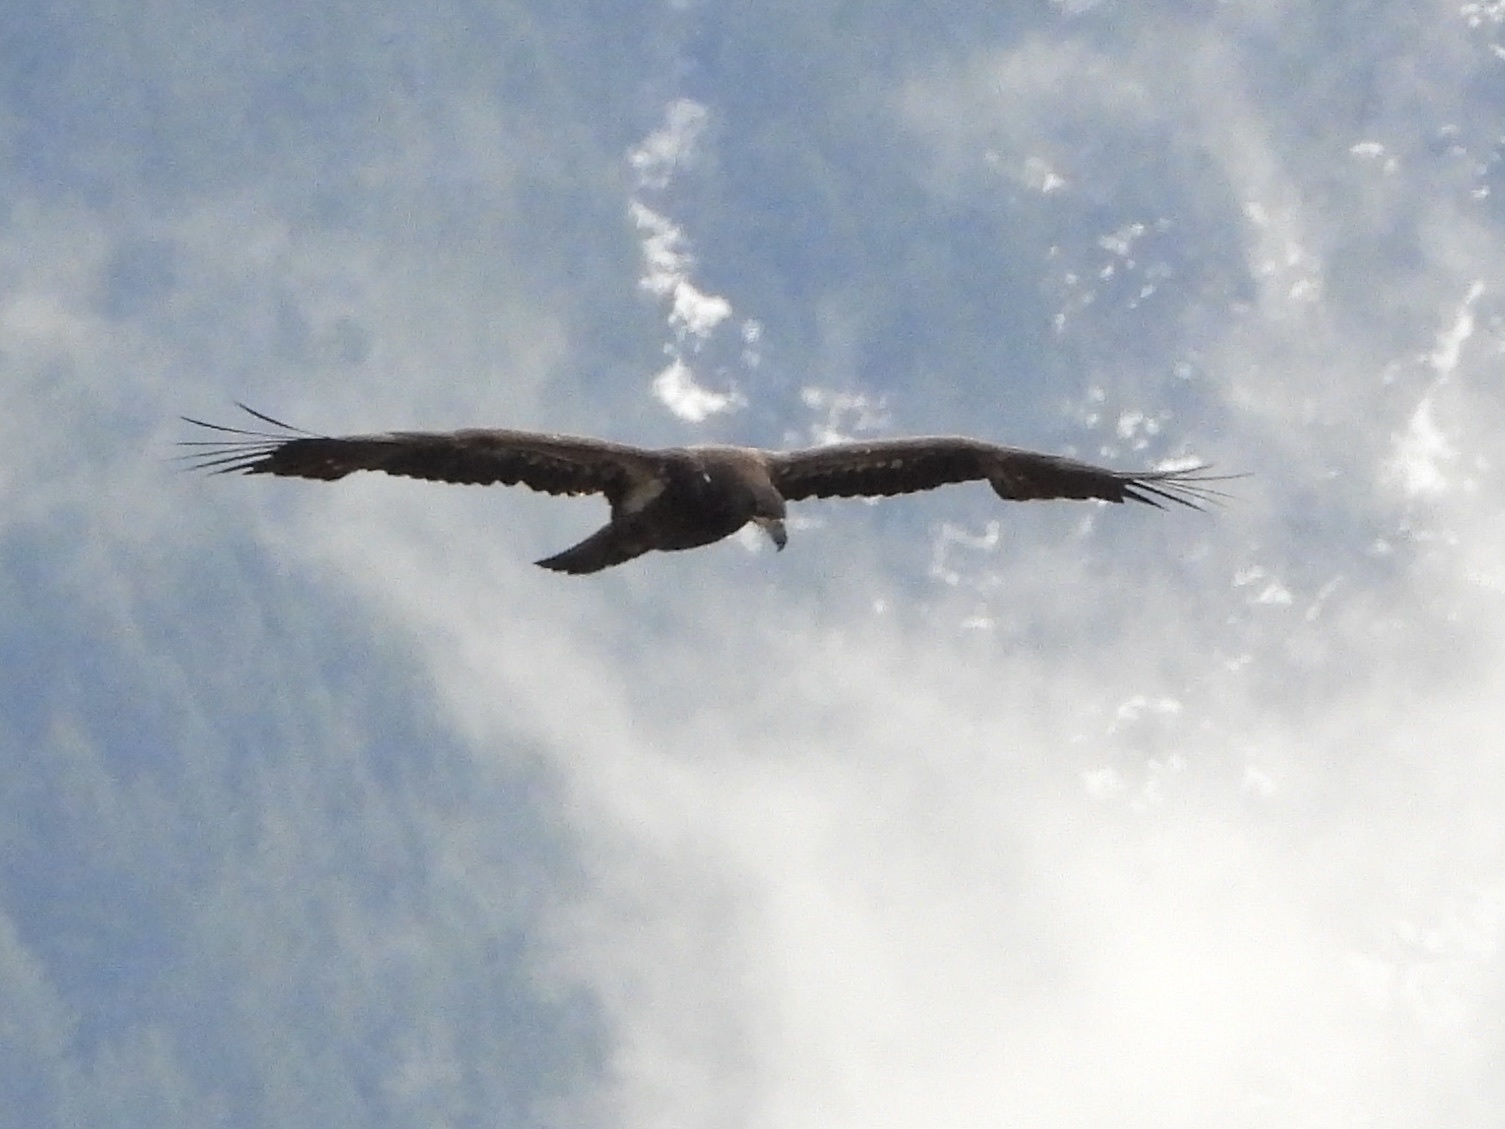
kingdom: Animalia
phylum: Chordata
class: Aves
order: Accipitriformes
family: Accipitridae
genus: Haliaeetus
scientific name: Haliaeetus leucocephalus
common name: Bald eagle
